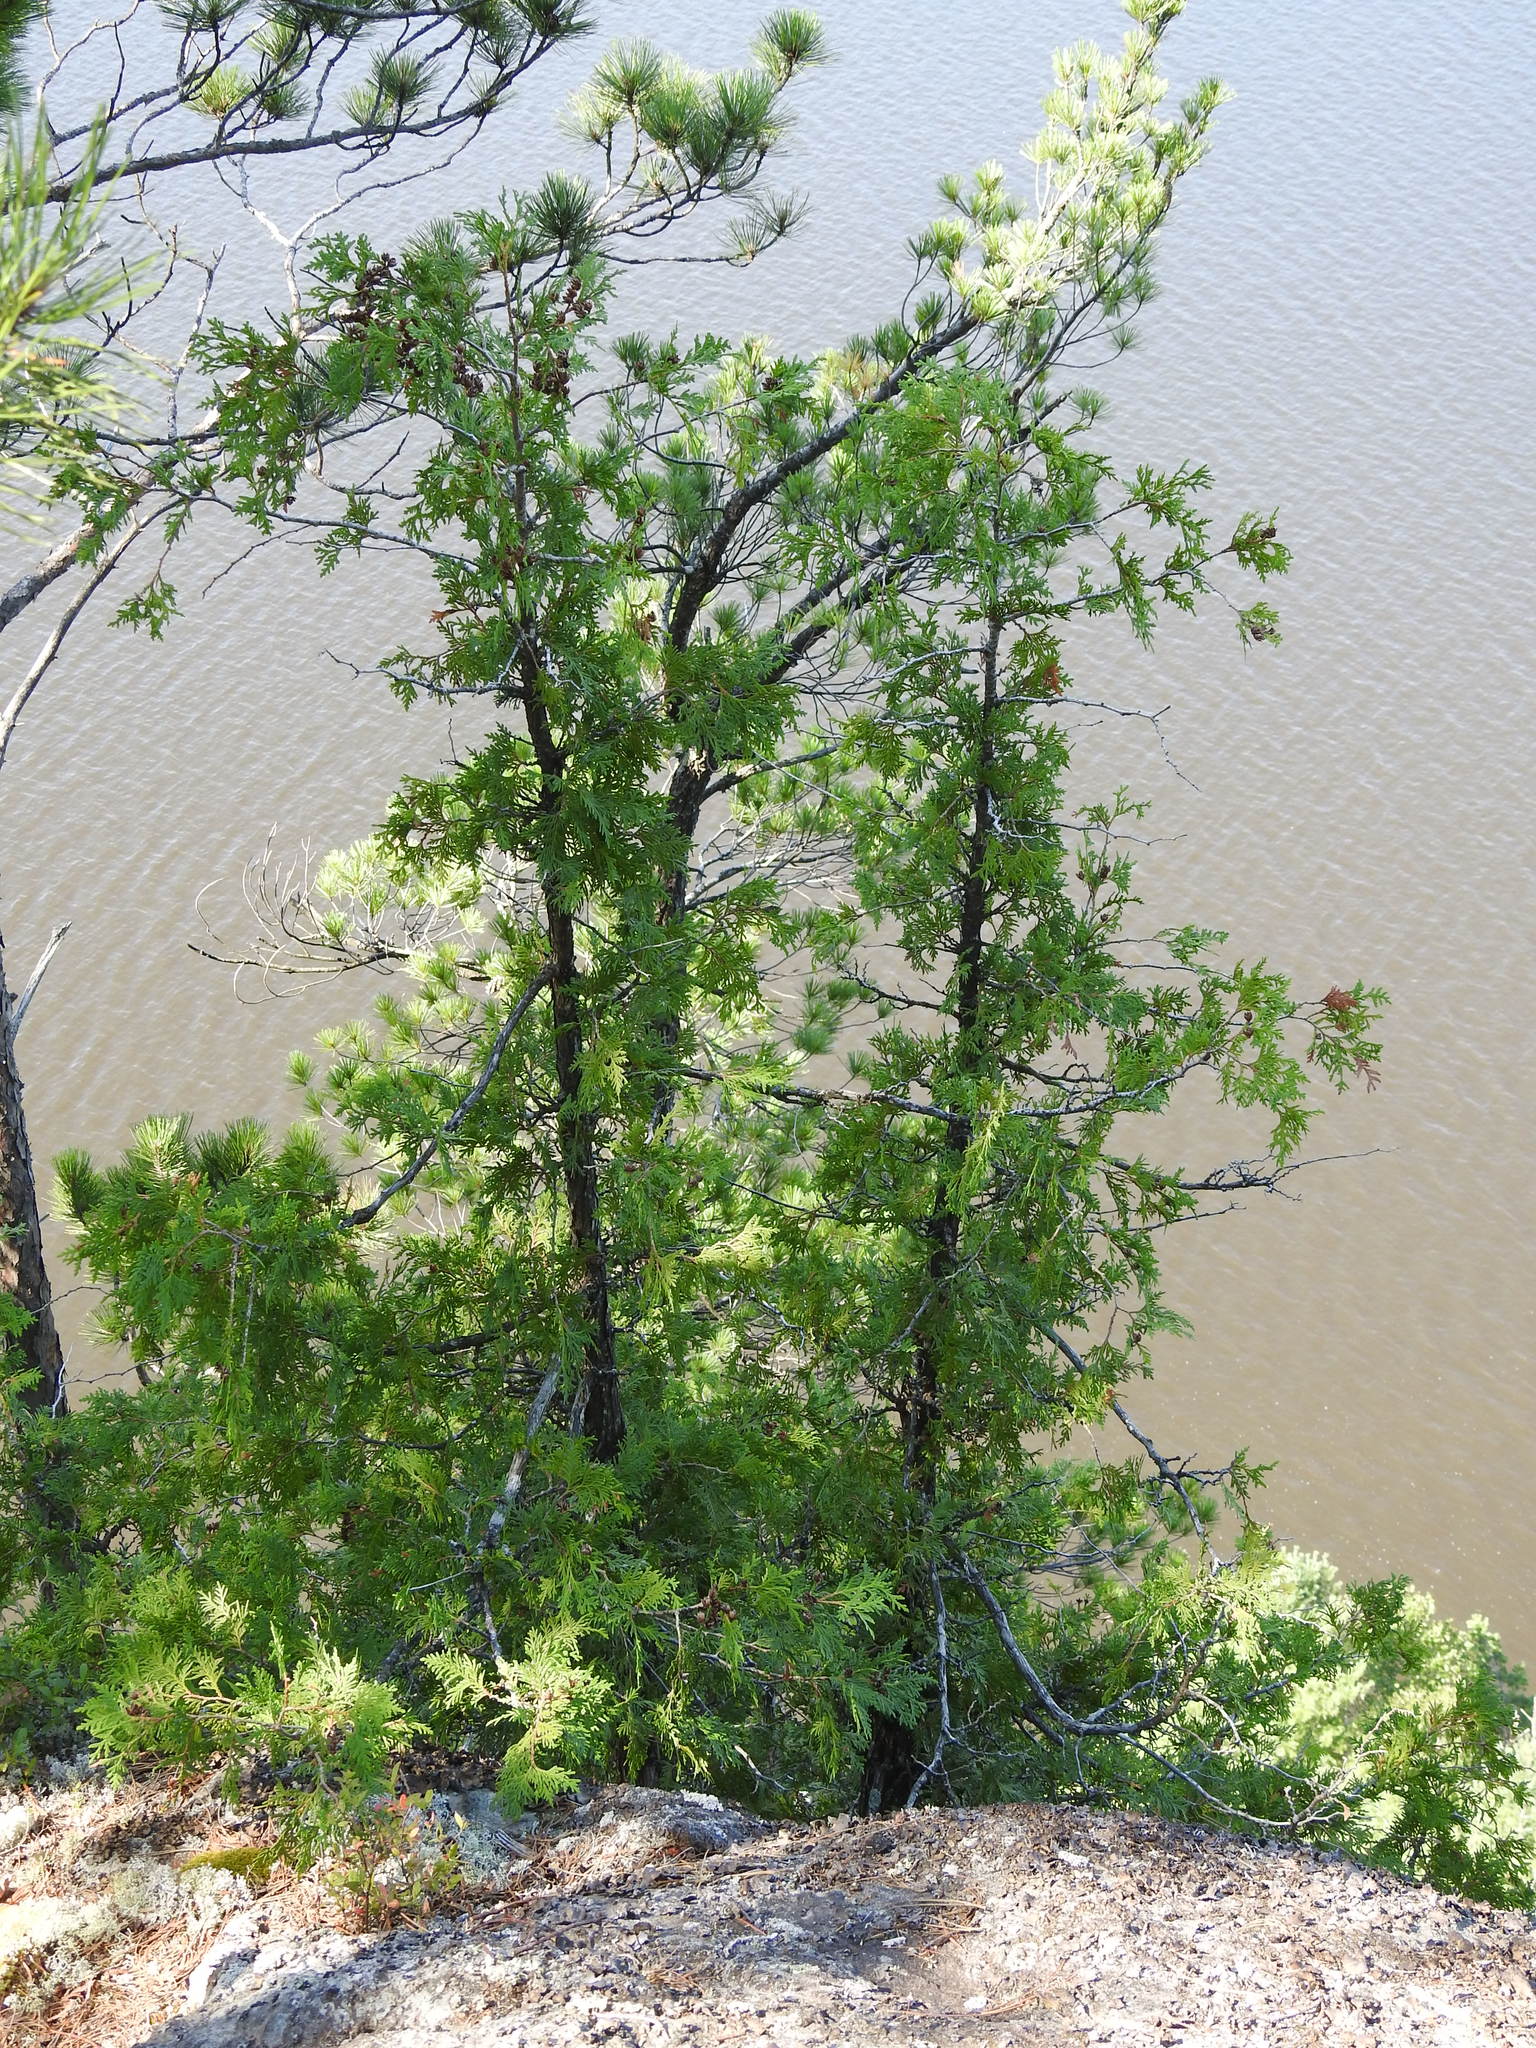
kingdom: Plantae
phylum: Tracheophyta
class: Pinopsida
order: Pinales
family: Cupressaceae
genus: Thuja
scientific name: Thuja occidentalis
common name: Northern white-cedar
